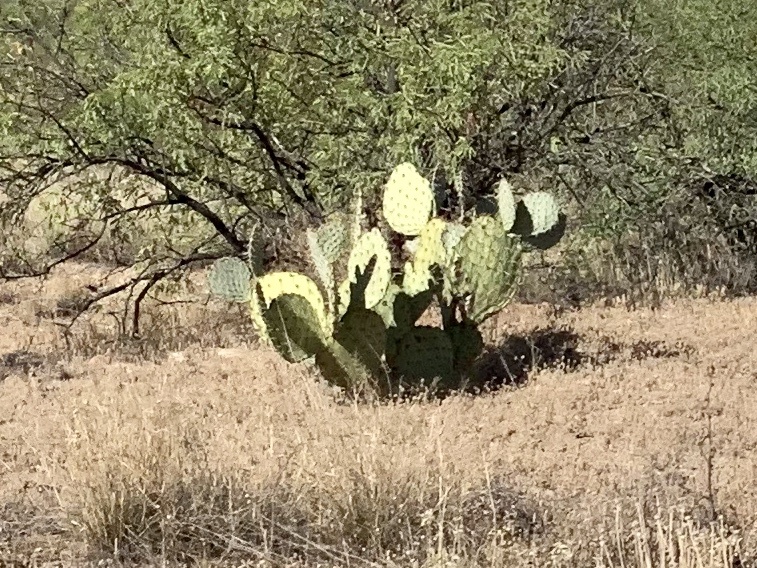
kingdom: Plantae
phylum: Tracheophyta
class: Magnoliopsida
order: Caryophyllales
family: Cactaceae
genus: Opuntia
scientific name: Opuntia engelmannii
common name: Cactus-apple
